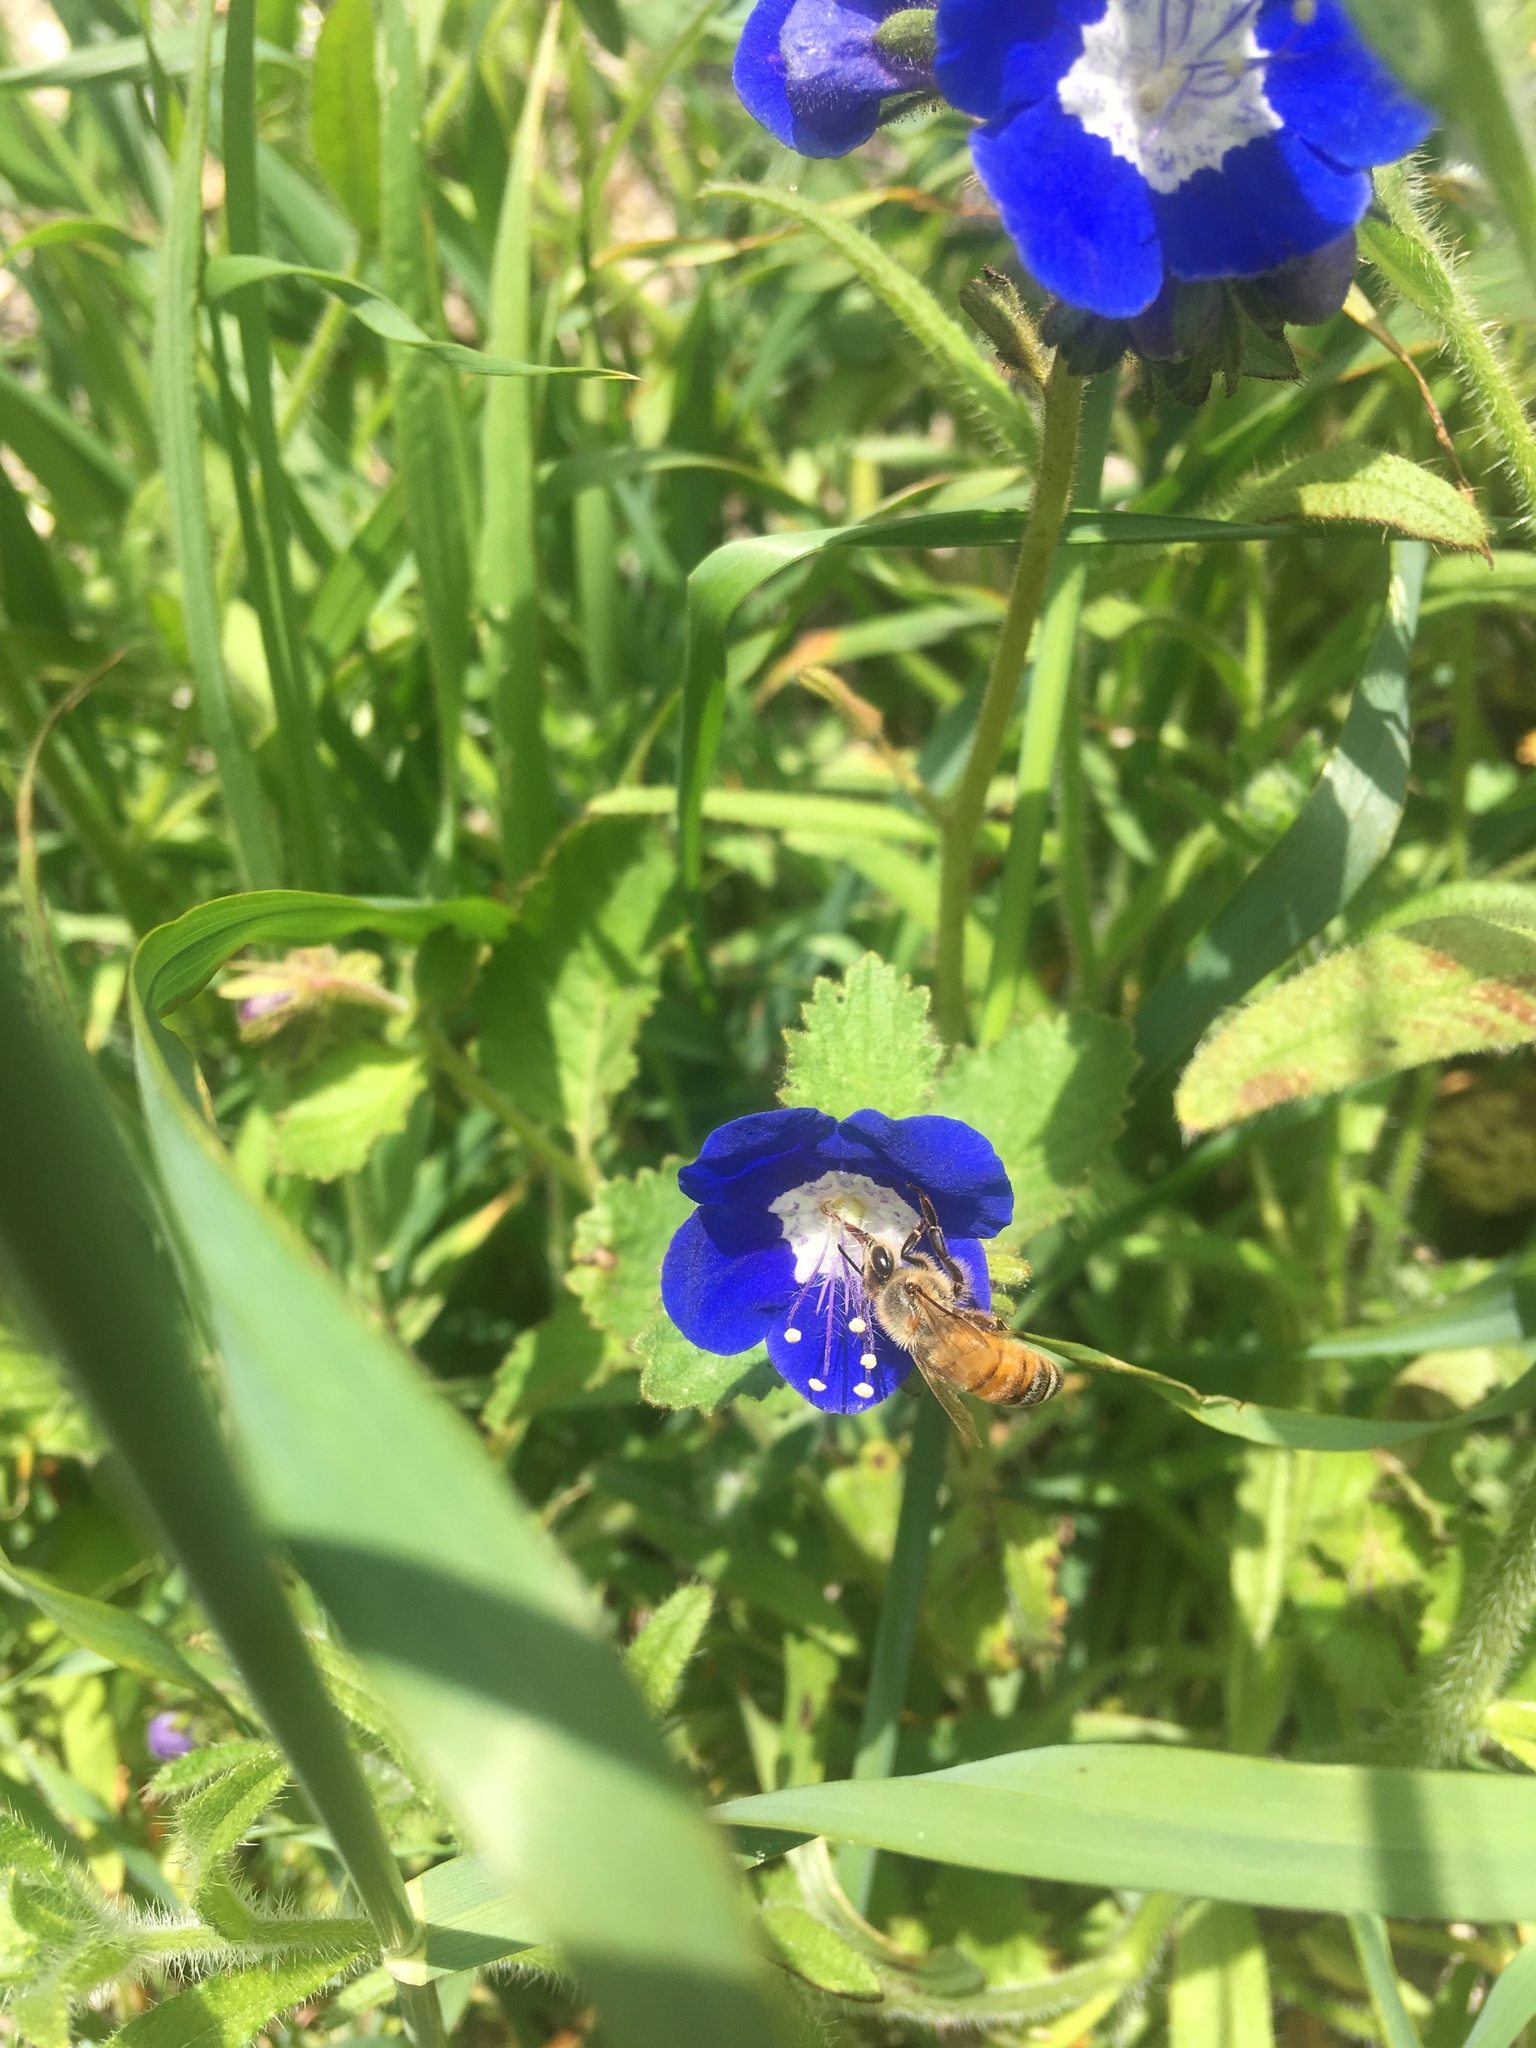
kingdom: Animalia
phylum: Arthropoda
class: Insecta
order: Hymenoptera
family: Apidae
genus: Apis
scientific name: Apis mellifera
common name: Honey bee
